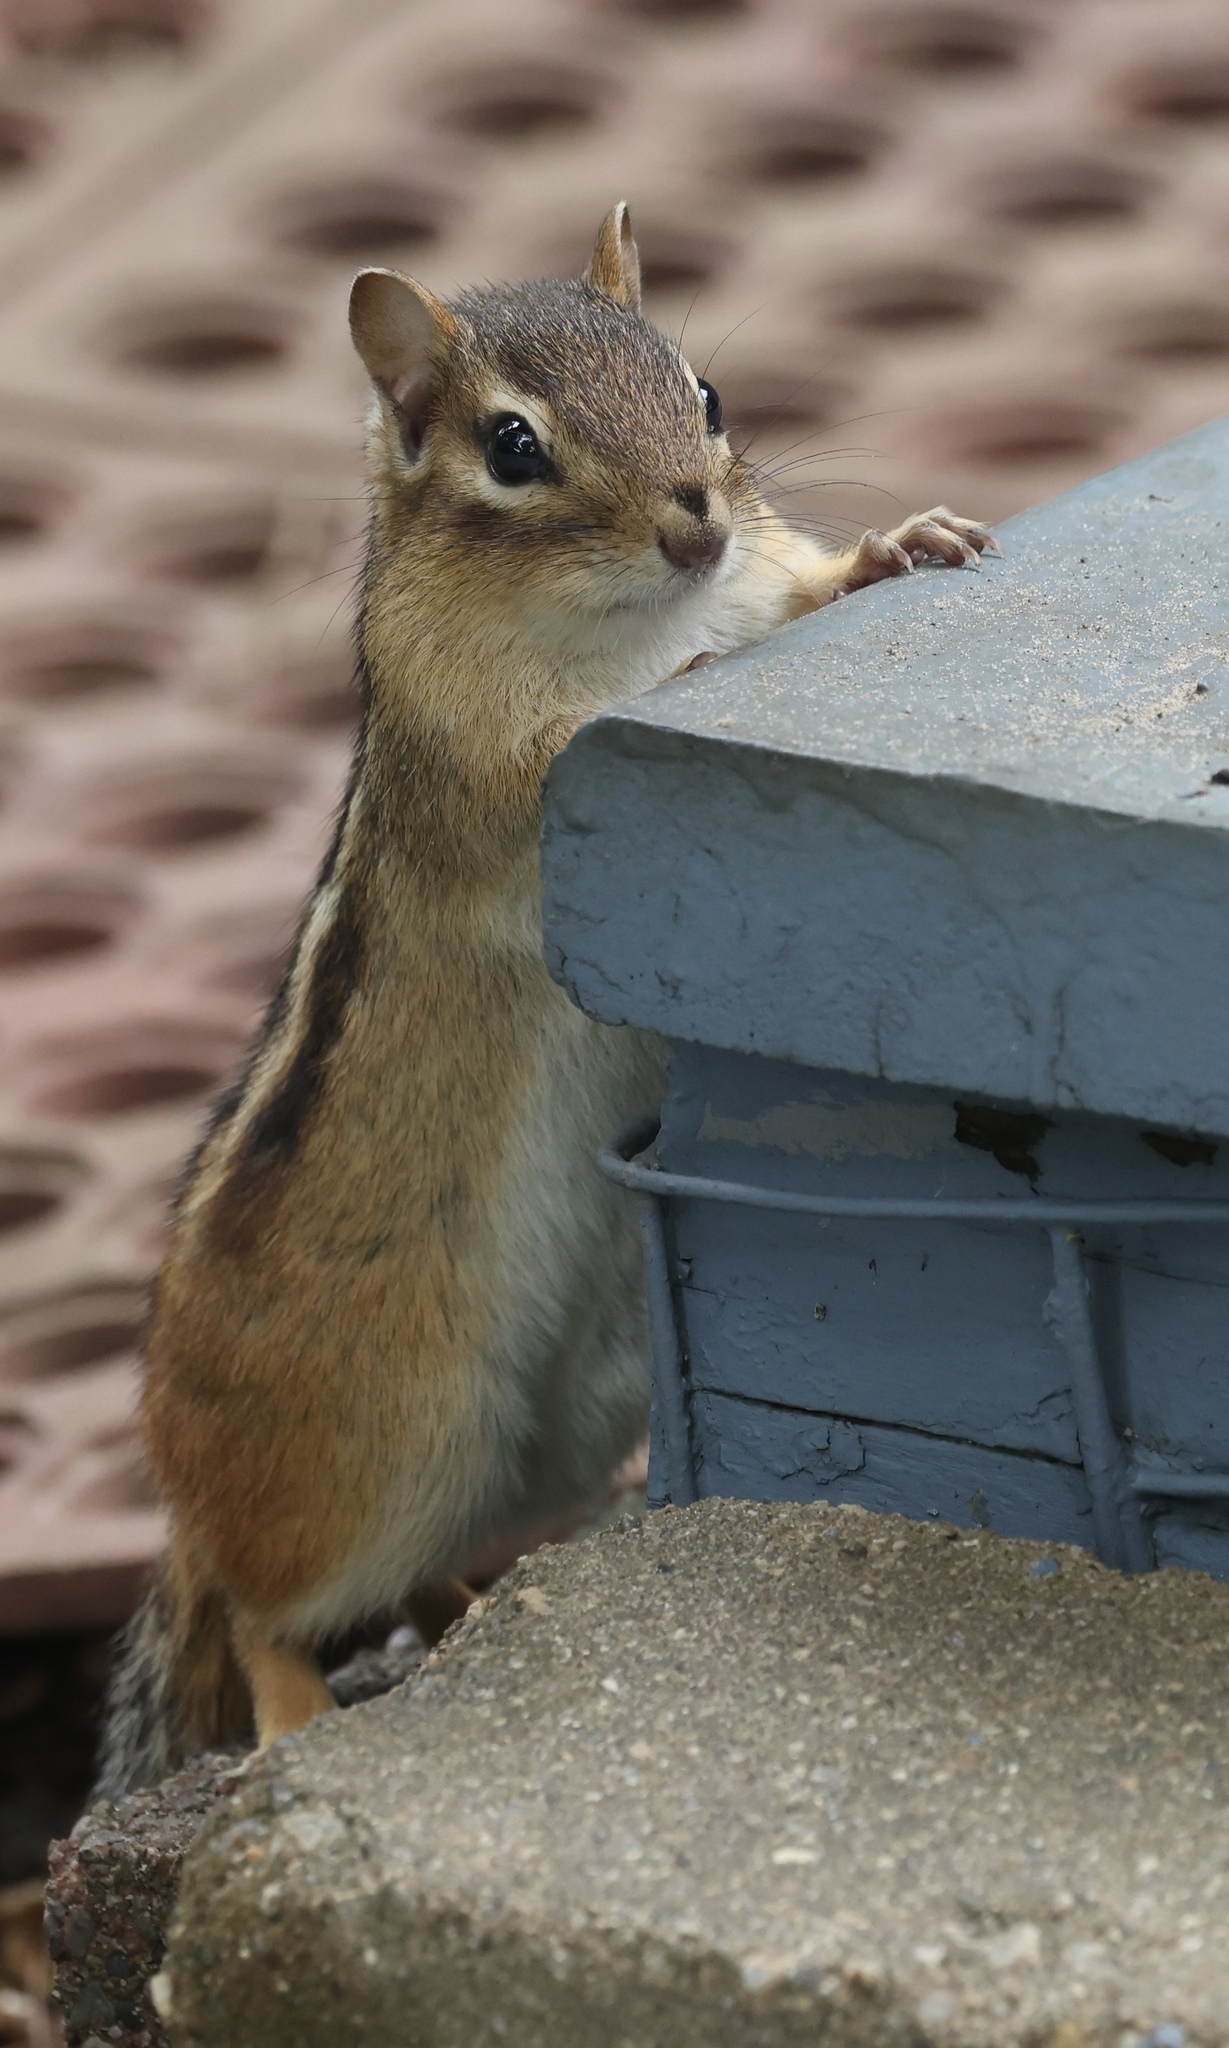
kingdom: Animalia
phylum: Chordata
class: Mammalia
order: Rodentia
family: Sciuridae
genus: Tamias
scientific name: Tamias striatus
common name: Eastern chipmunk
